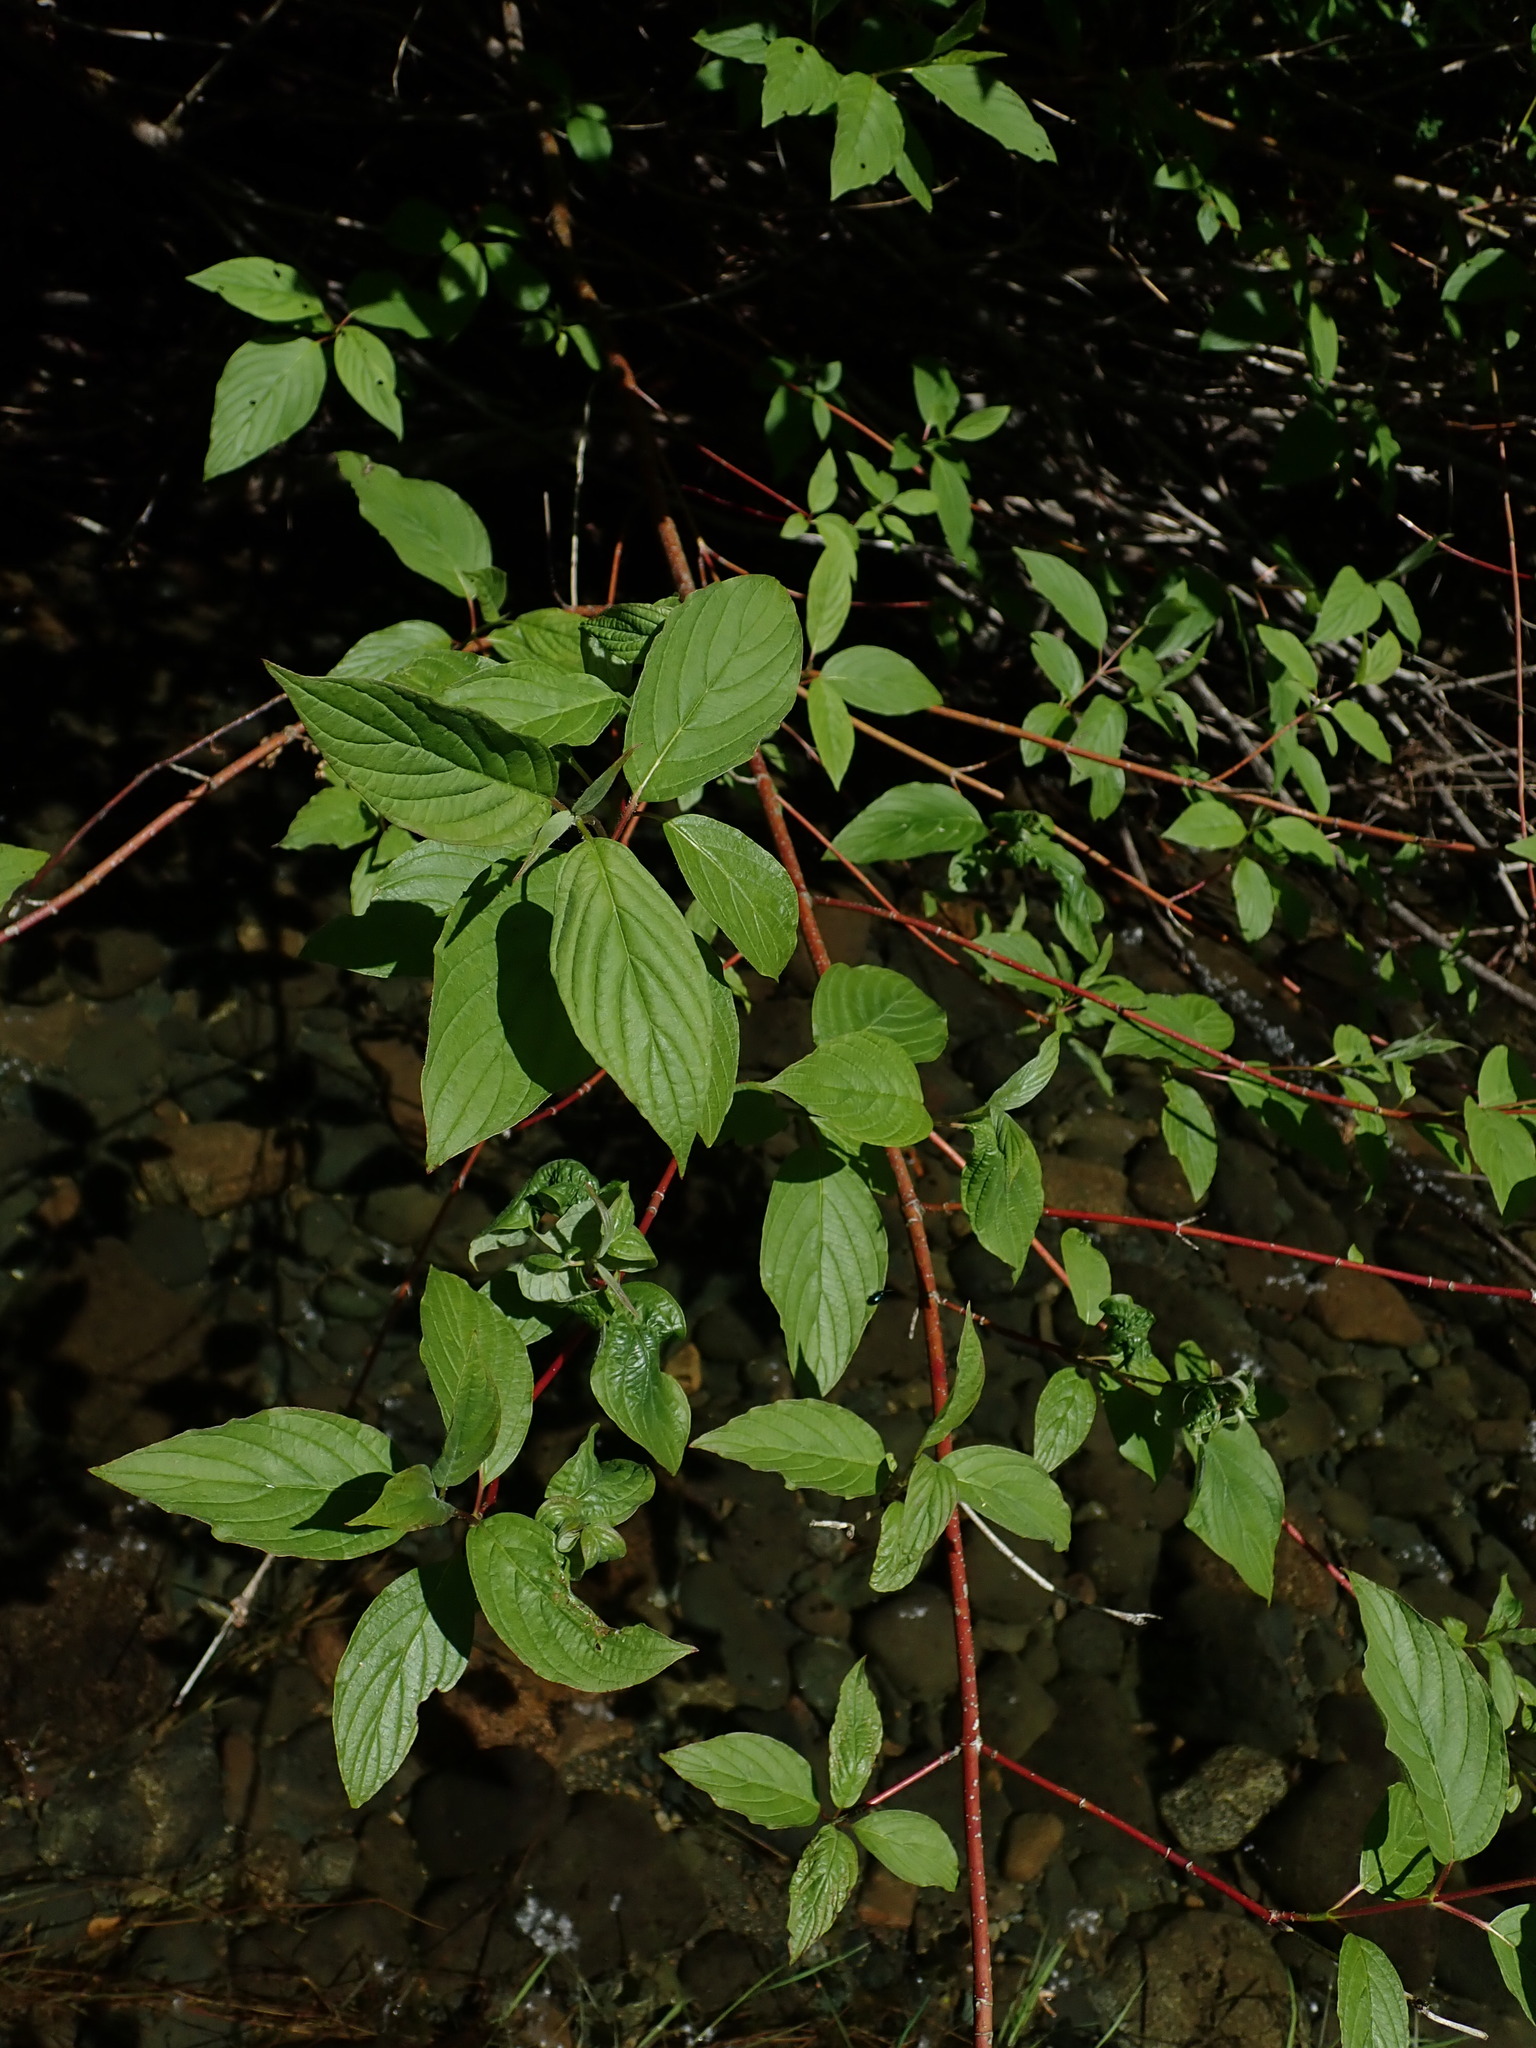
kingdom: Plantae
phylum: Tracheophyta
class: Magnoliopsida
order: Cornales
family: Cornaceae
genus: Cornus
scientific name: Cornus sericea
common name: Red-osier dogwood
